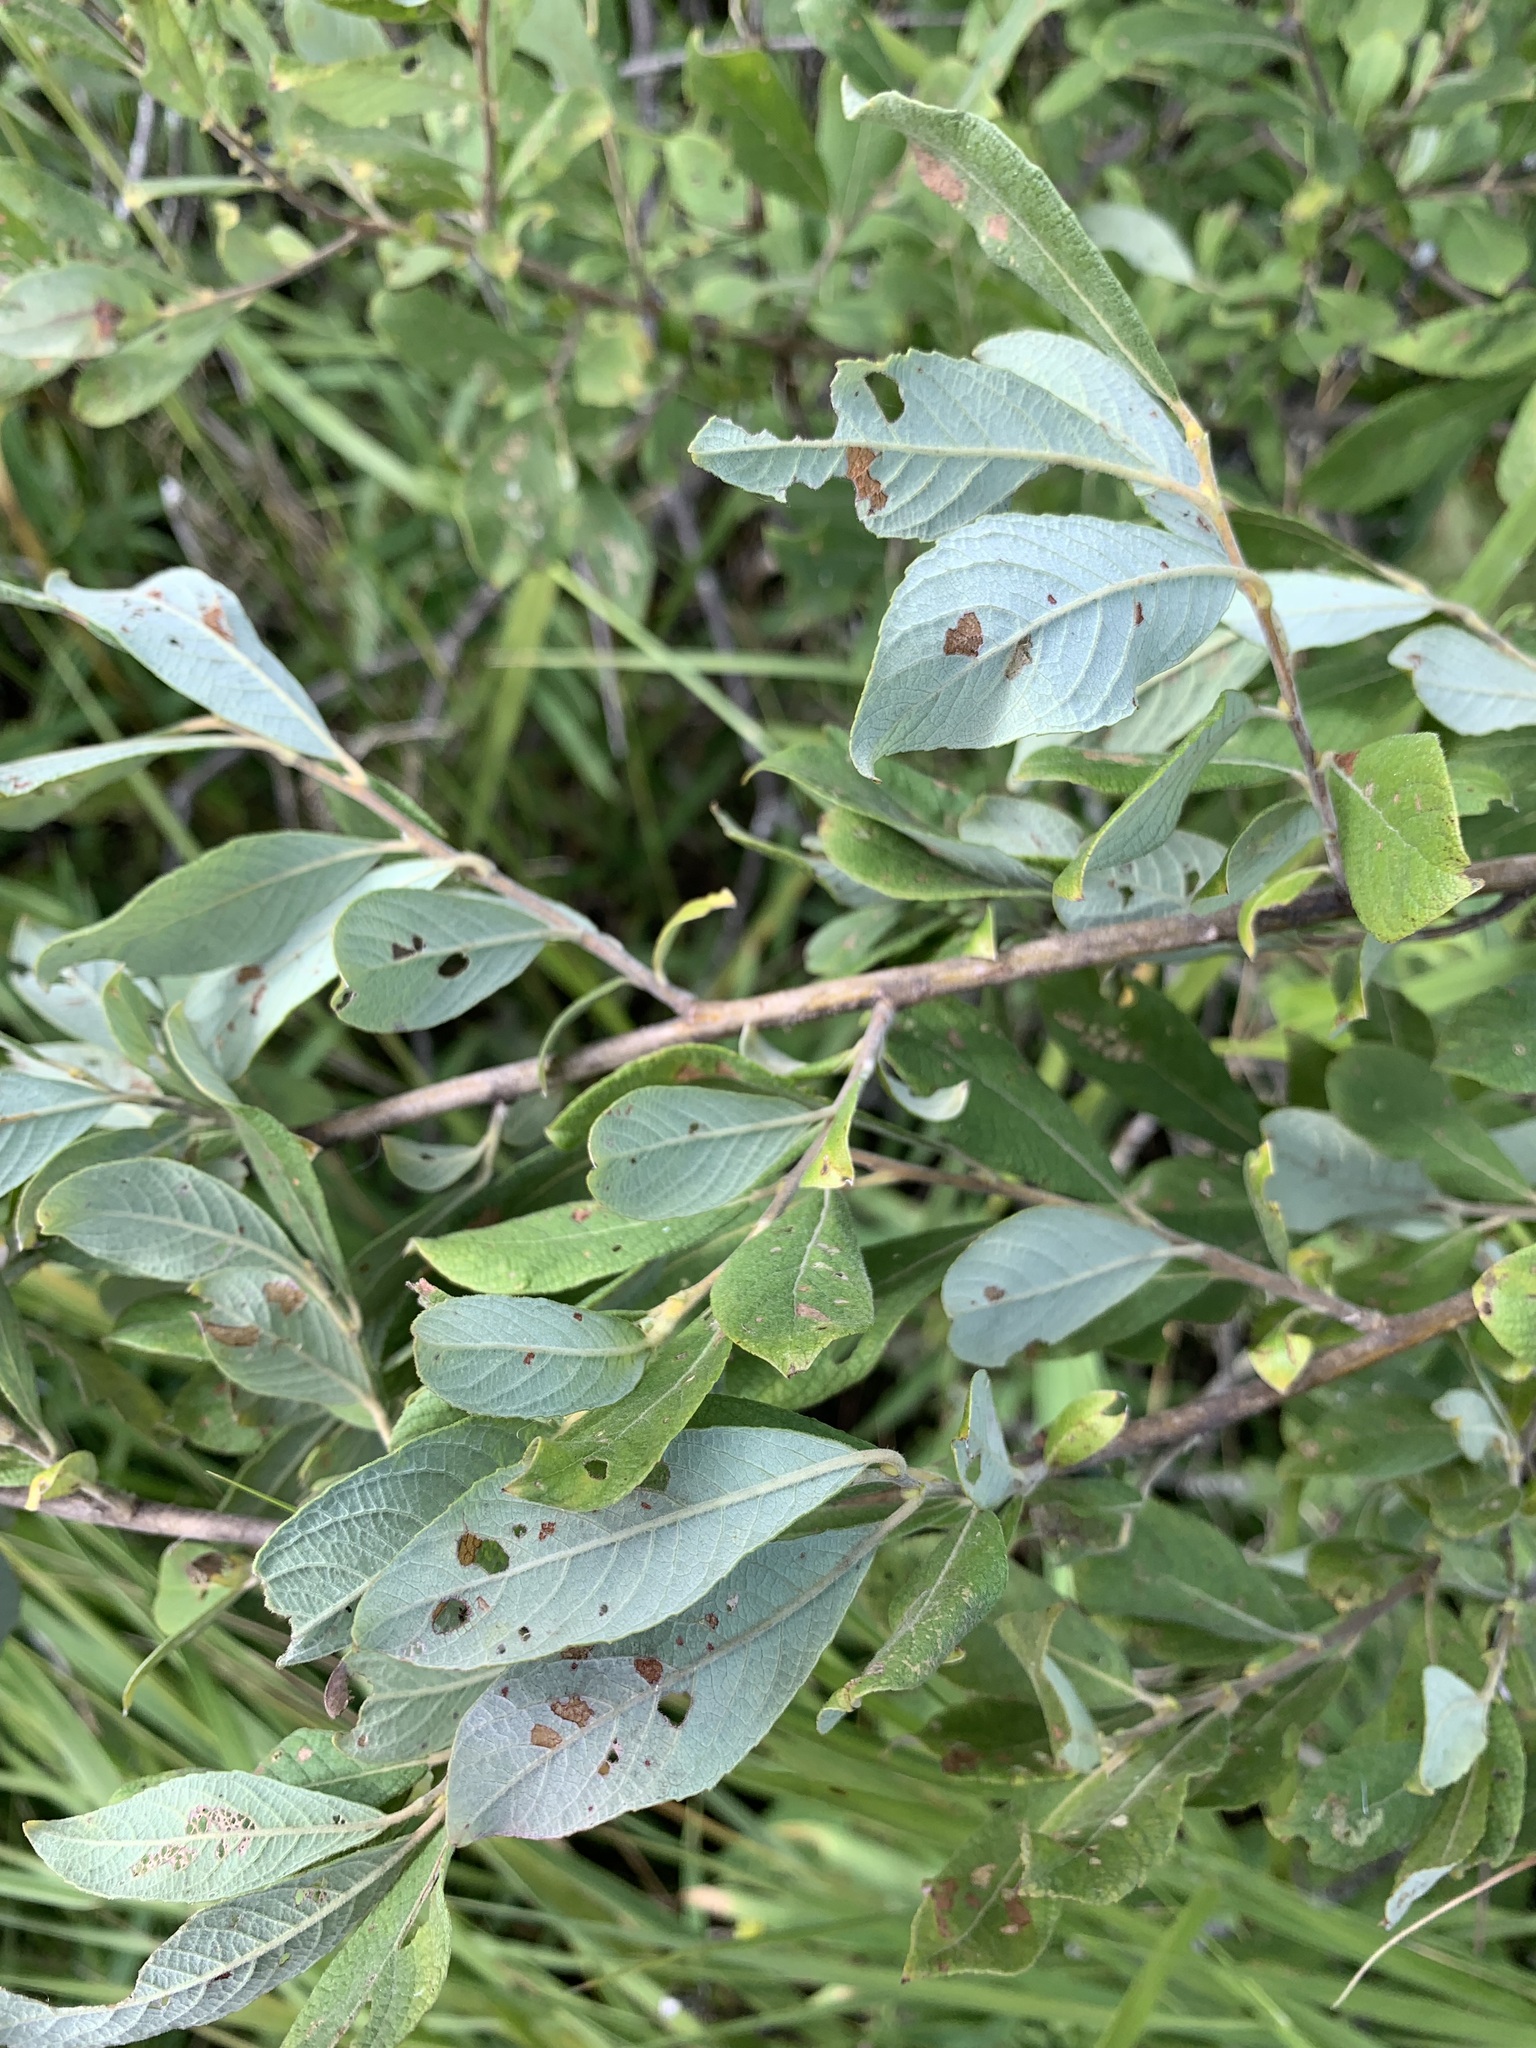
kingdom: Plantae
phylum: Tracheophyta
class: Magnoliopsida
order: Malpighiales
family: Salicaceae
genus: Salix
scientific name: Salix cinerea
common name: Common sallow
